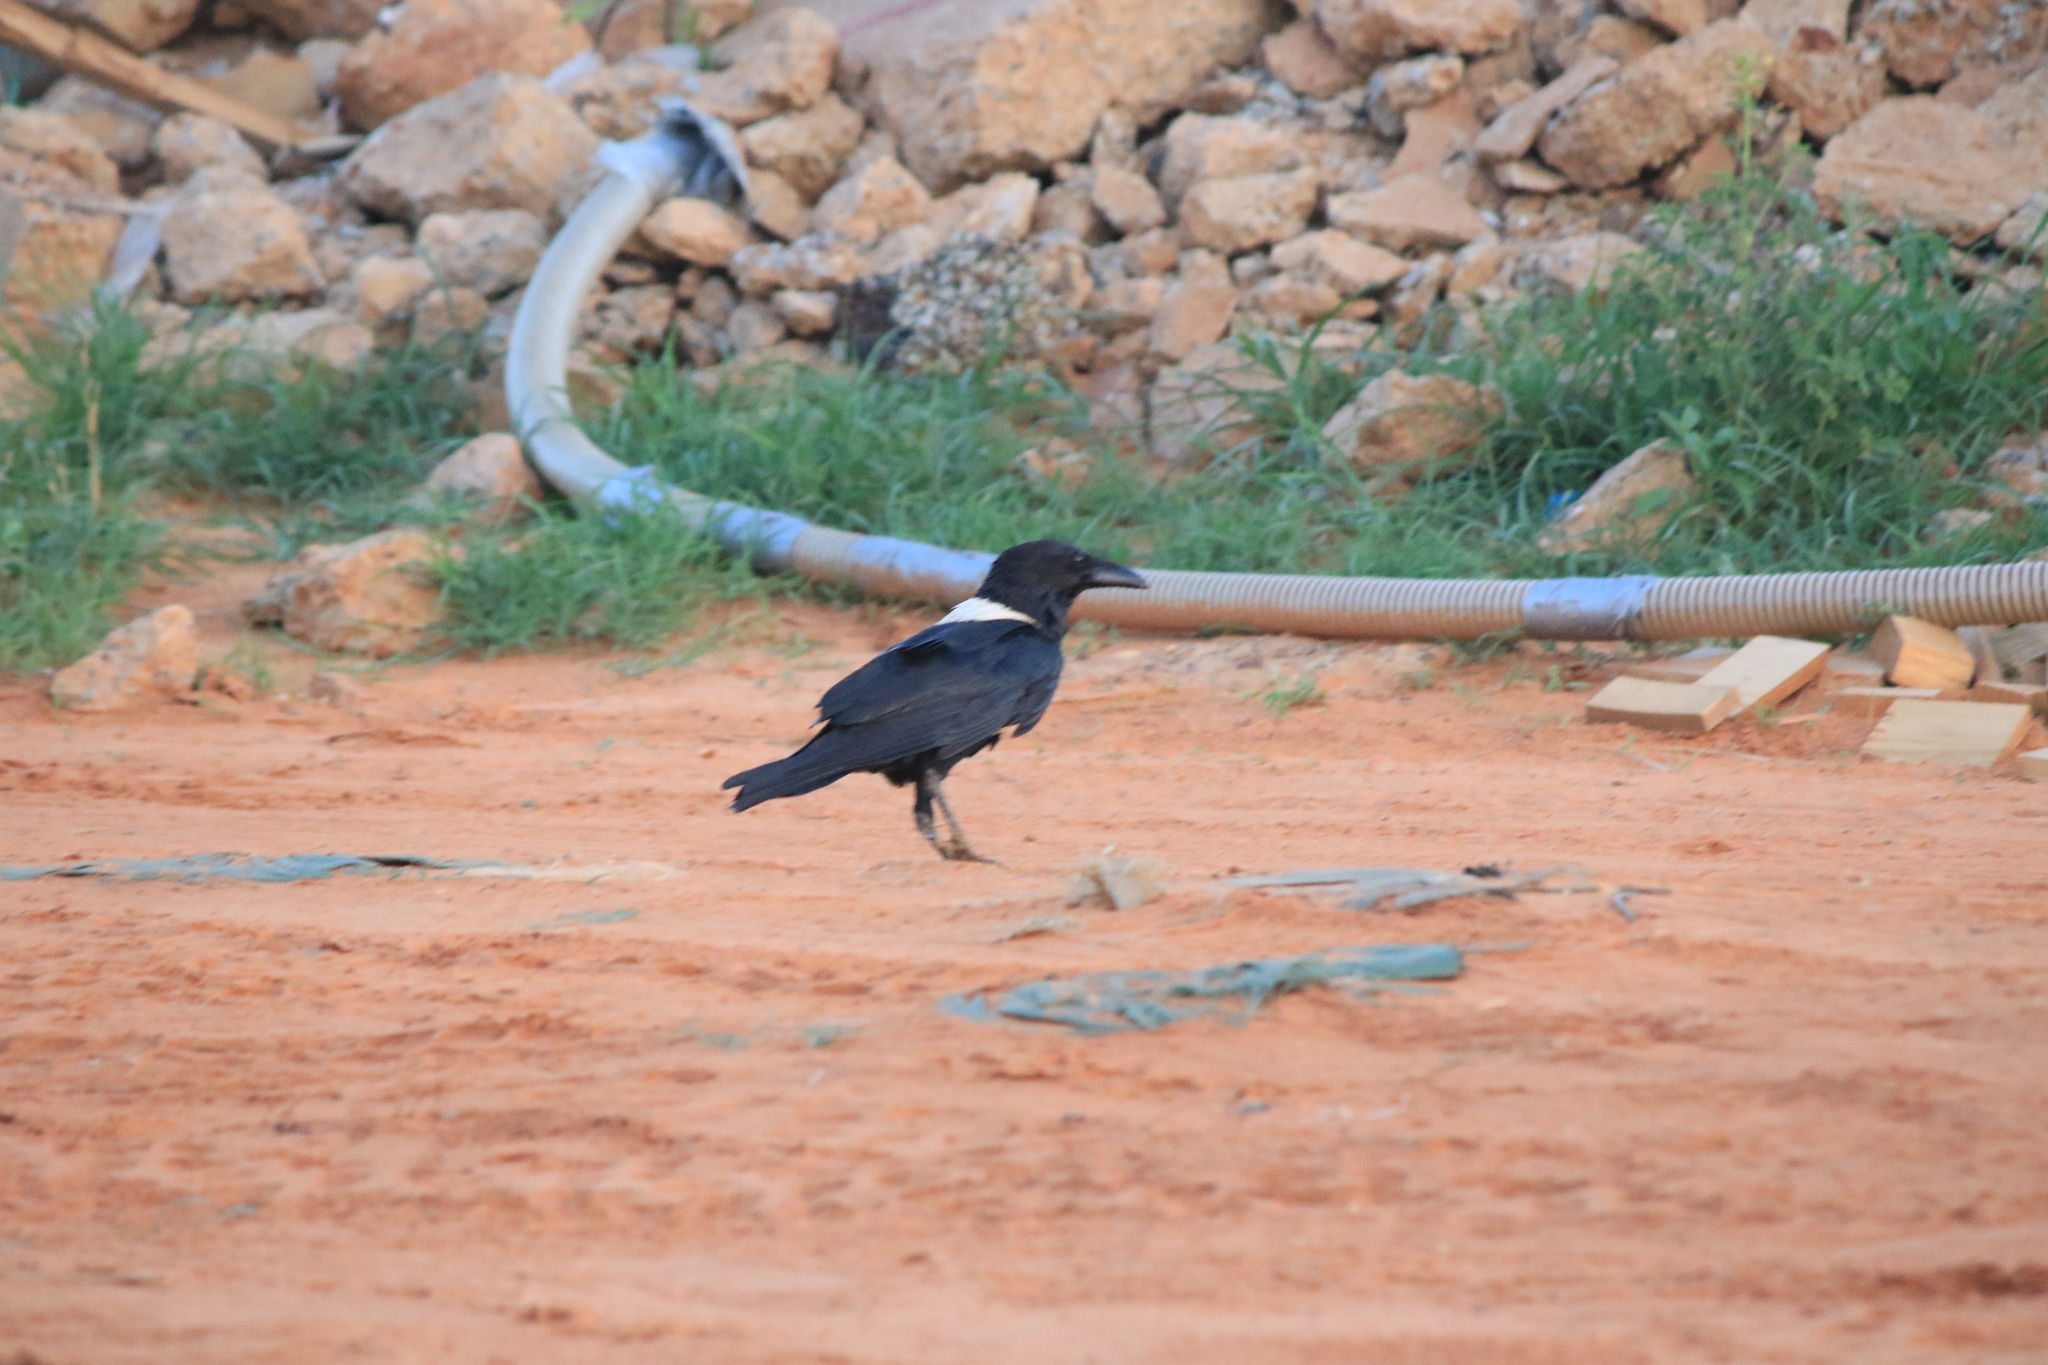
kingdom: Animalia
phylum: Chordata
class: Aves
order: Passeriformes
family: Corvidae
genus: Corvus
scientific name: Corvus albus
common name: Pied crow
